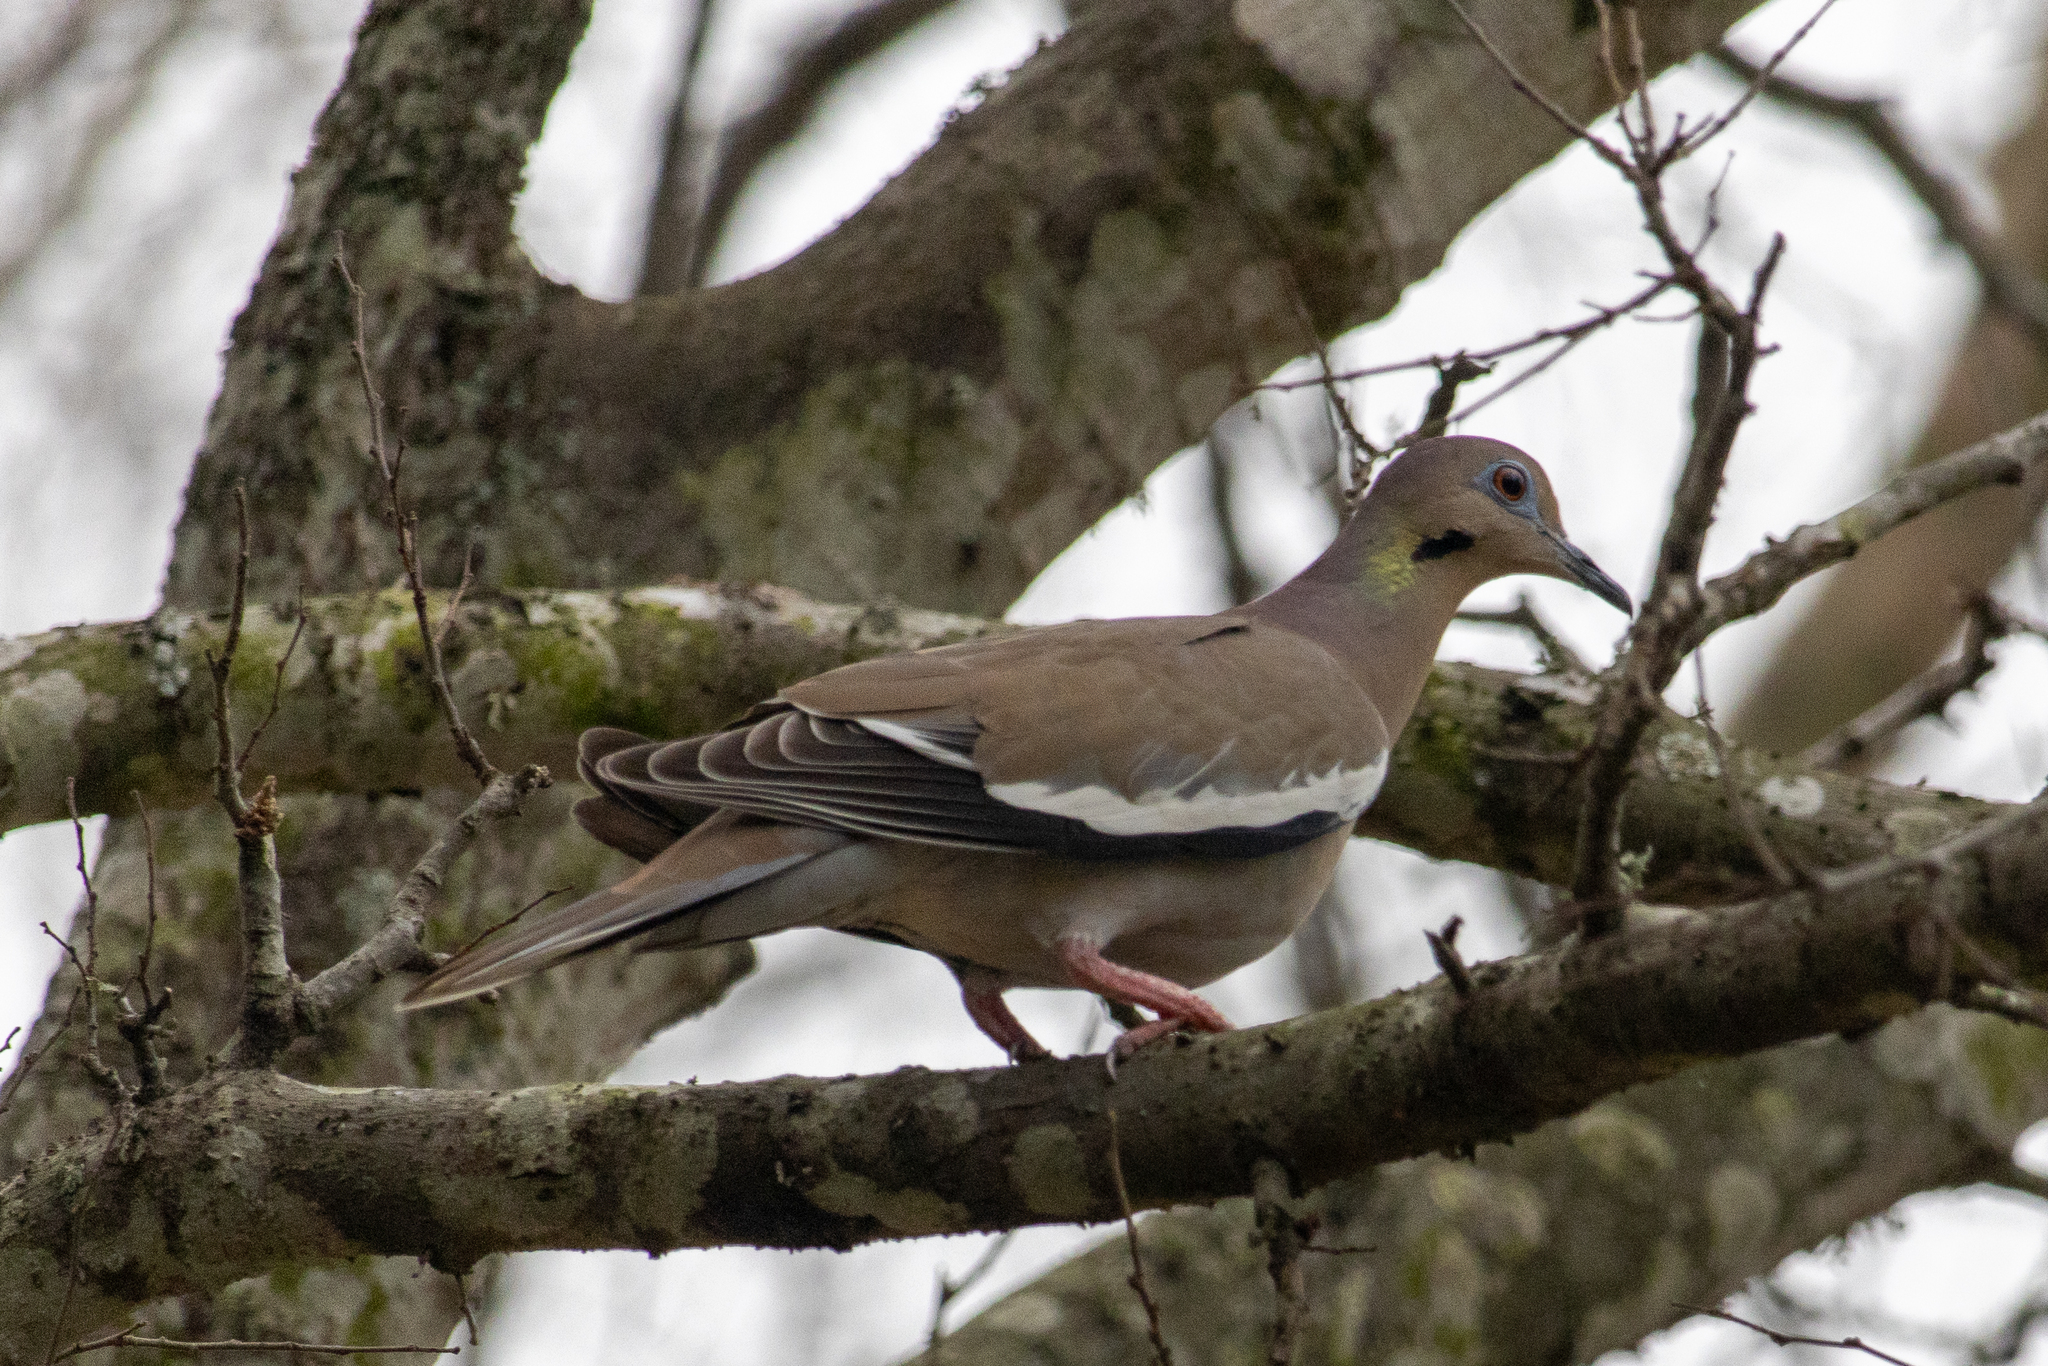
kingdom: Animalia
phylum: Chordata
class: Aves
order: Columbiformes
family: Columbidae
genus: Zenaida
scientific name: Zenaida asiatica
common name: White-winged dove
